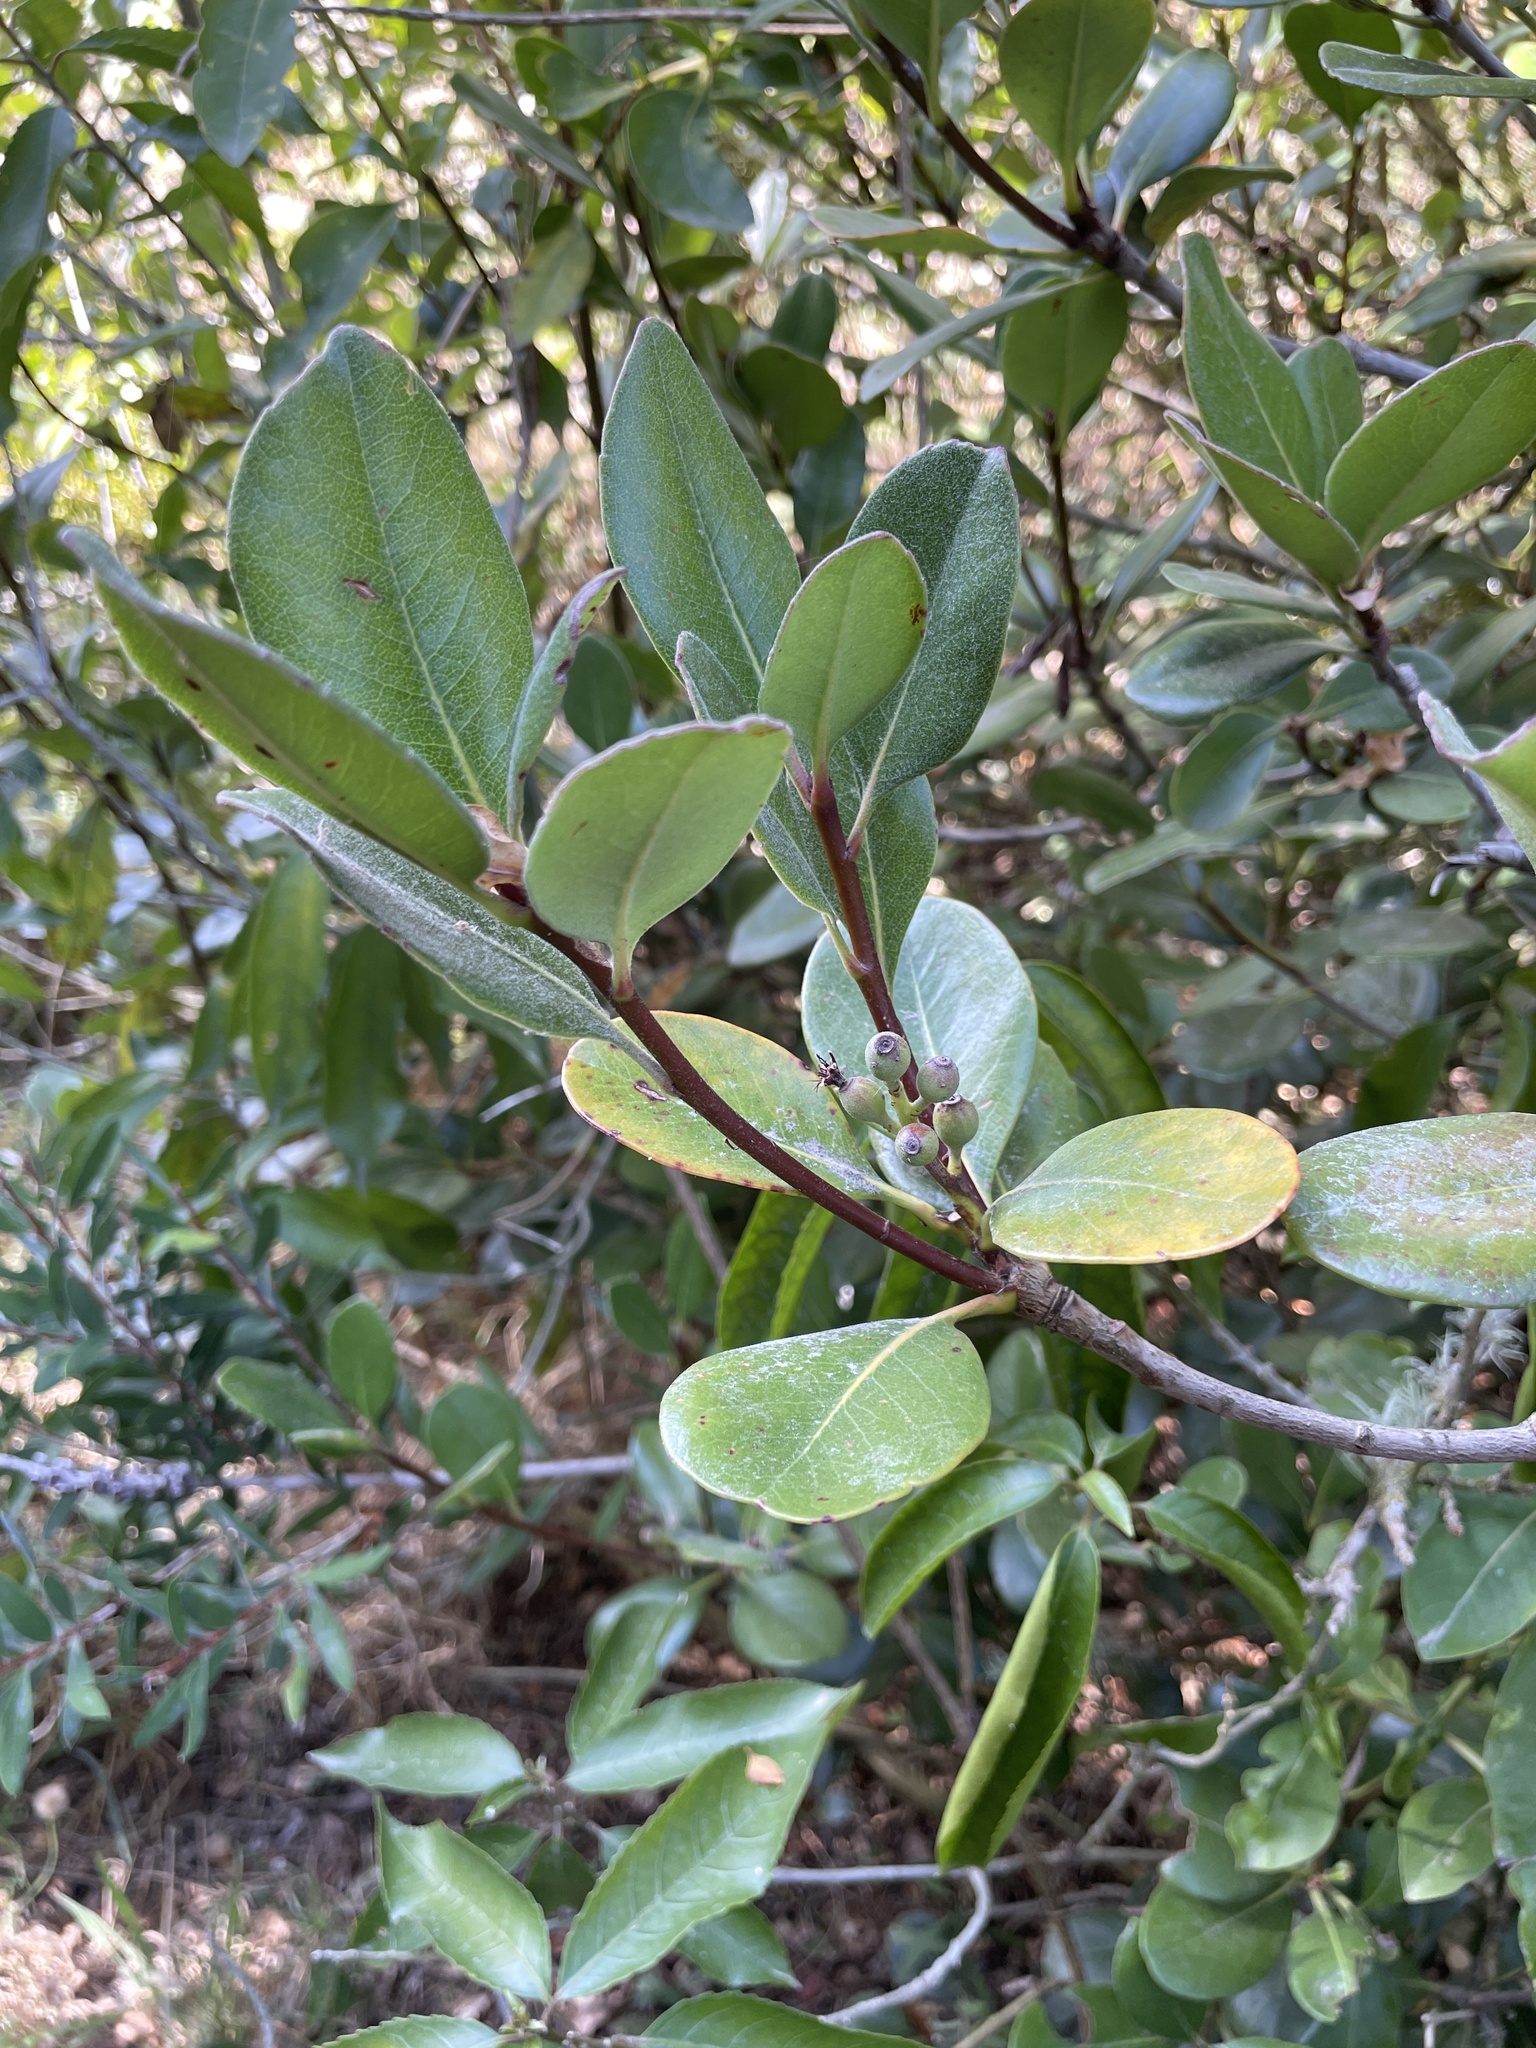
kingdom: Plantae
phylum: Tracheophyta
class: Magnoliopsida
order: Rosales
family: Rosaceae
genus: Rhaphiolepis
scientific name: Rhaphiolepis umbellata
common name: Yedda-hawthorn
